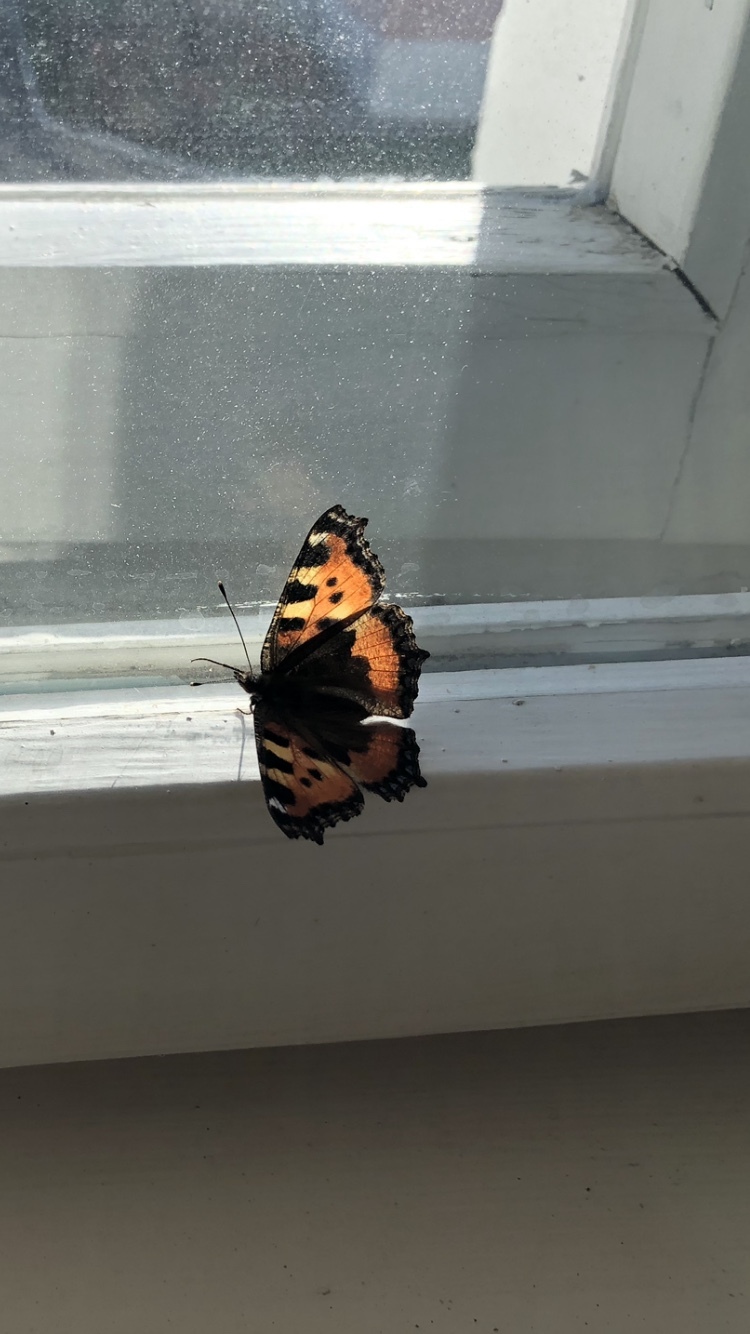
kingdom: Animalia
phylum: Arthropoda
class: Insecta
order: Lepidoptera
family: Nymphalidae
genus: Aglais
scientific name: Aglais urticae
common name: Small tortoiseshell
